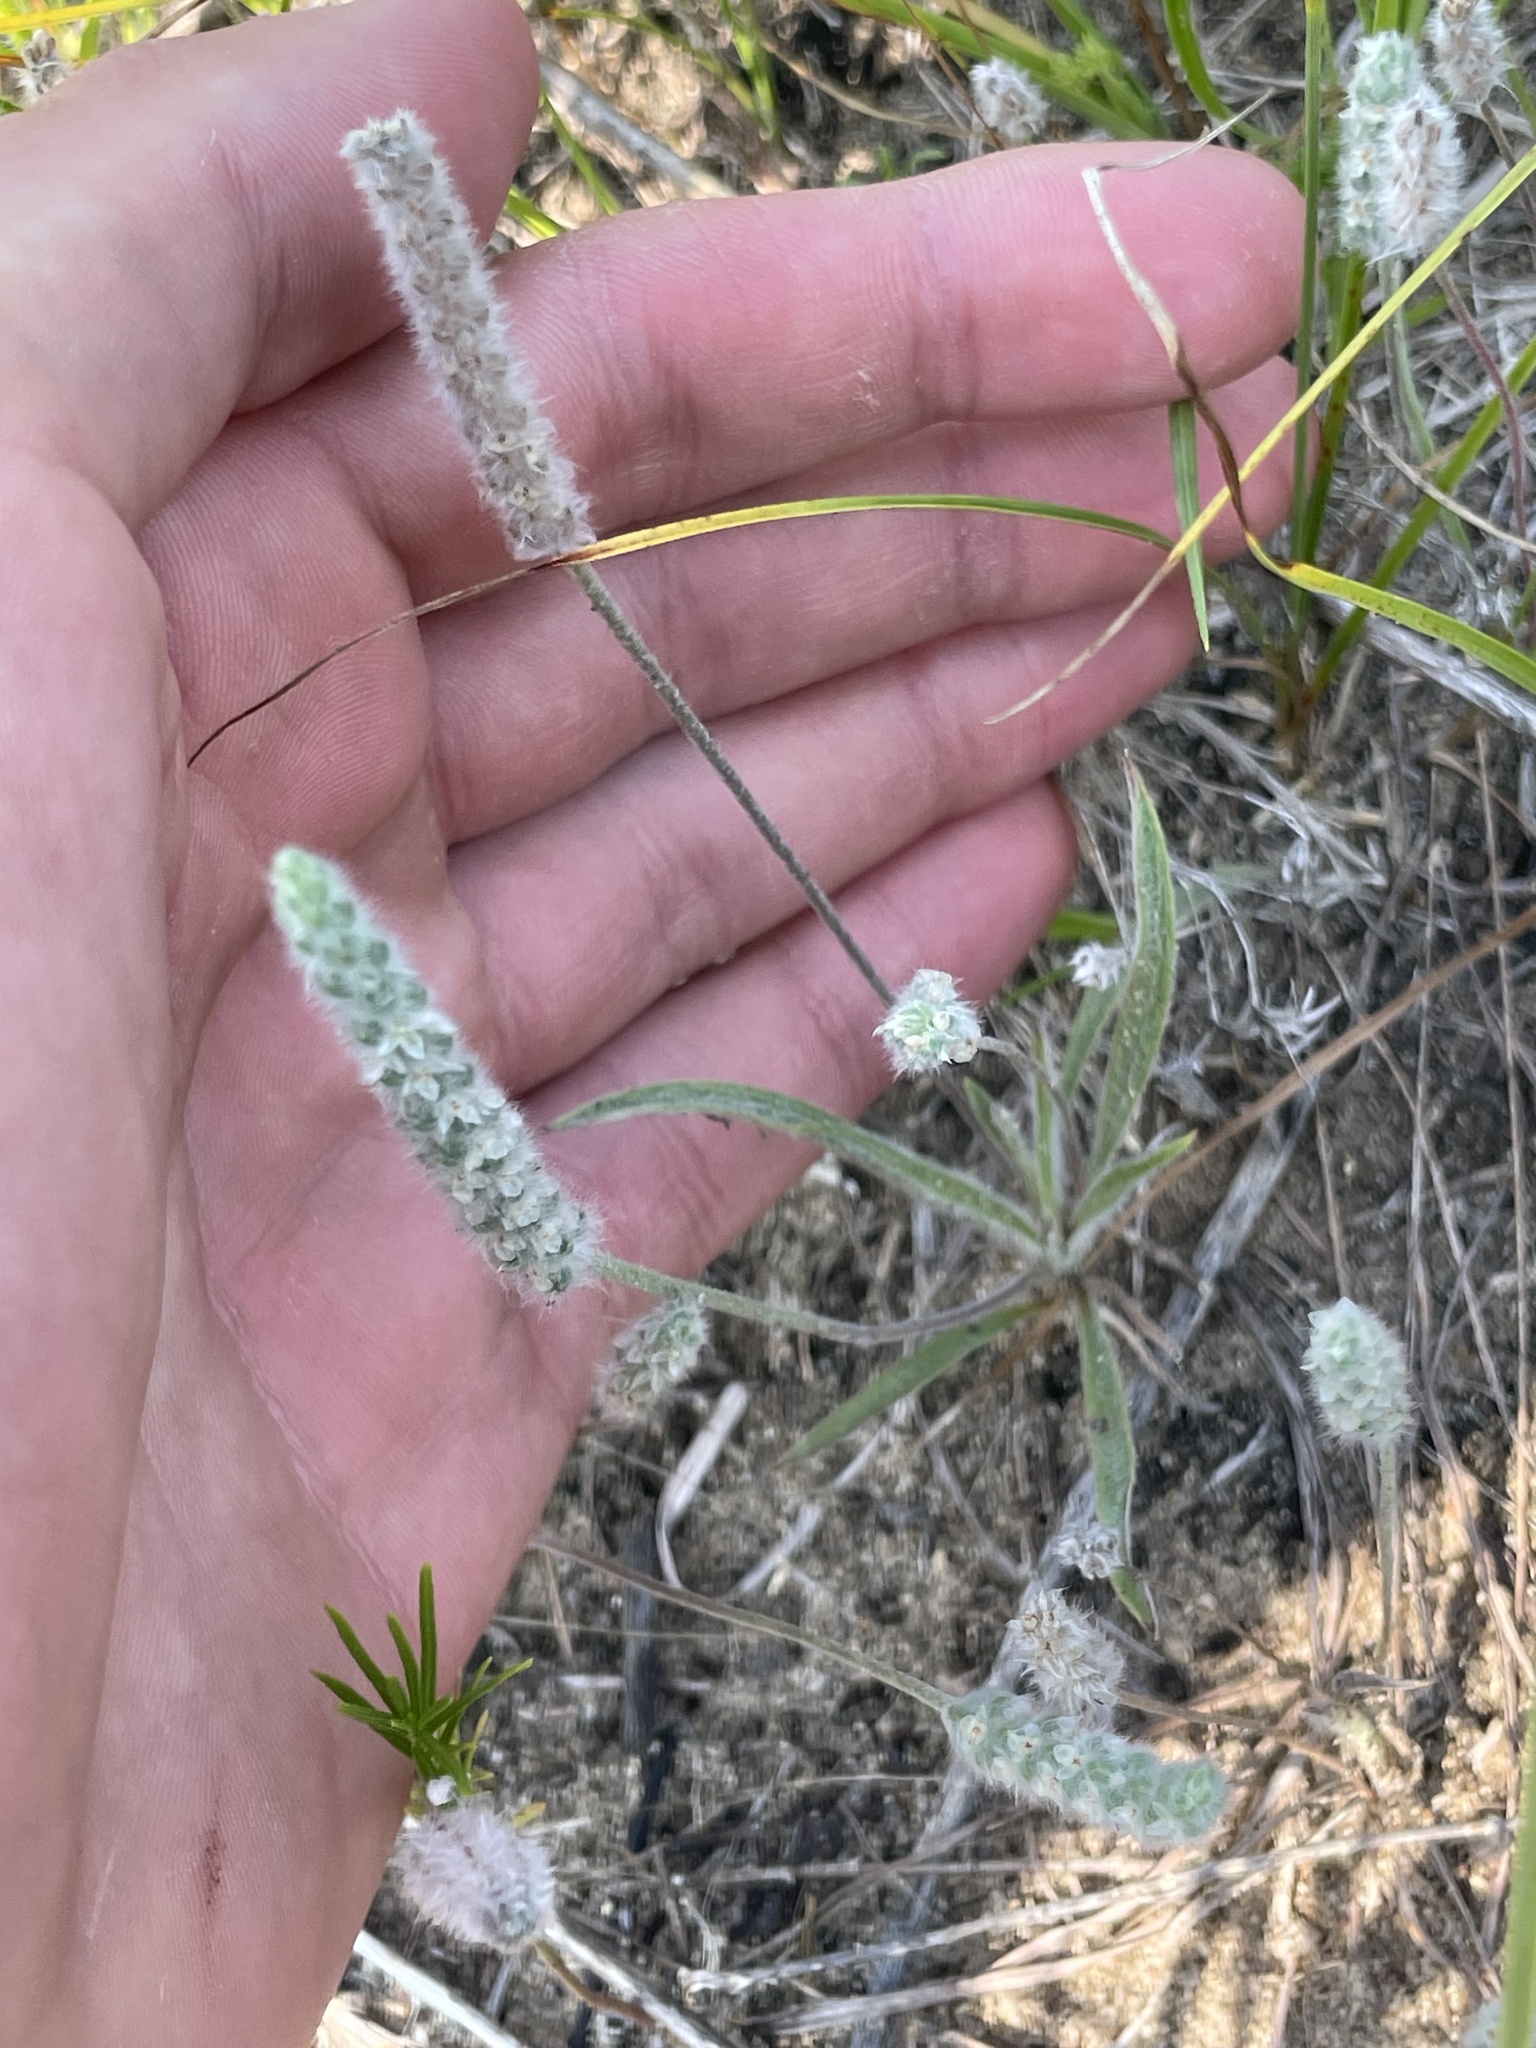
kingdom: Plantae
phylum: Tracheophyta
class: Magnoliopsida
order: Lamiales
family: Plantaginaceae
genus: Plantago
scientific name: Plantago patagonica
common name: Patagonia indian-wheat
